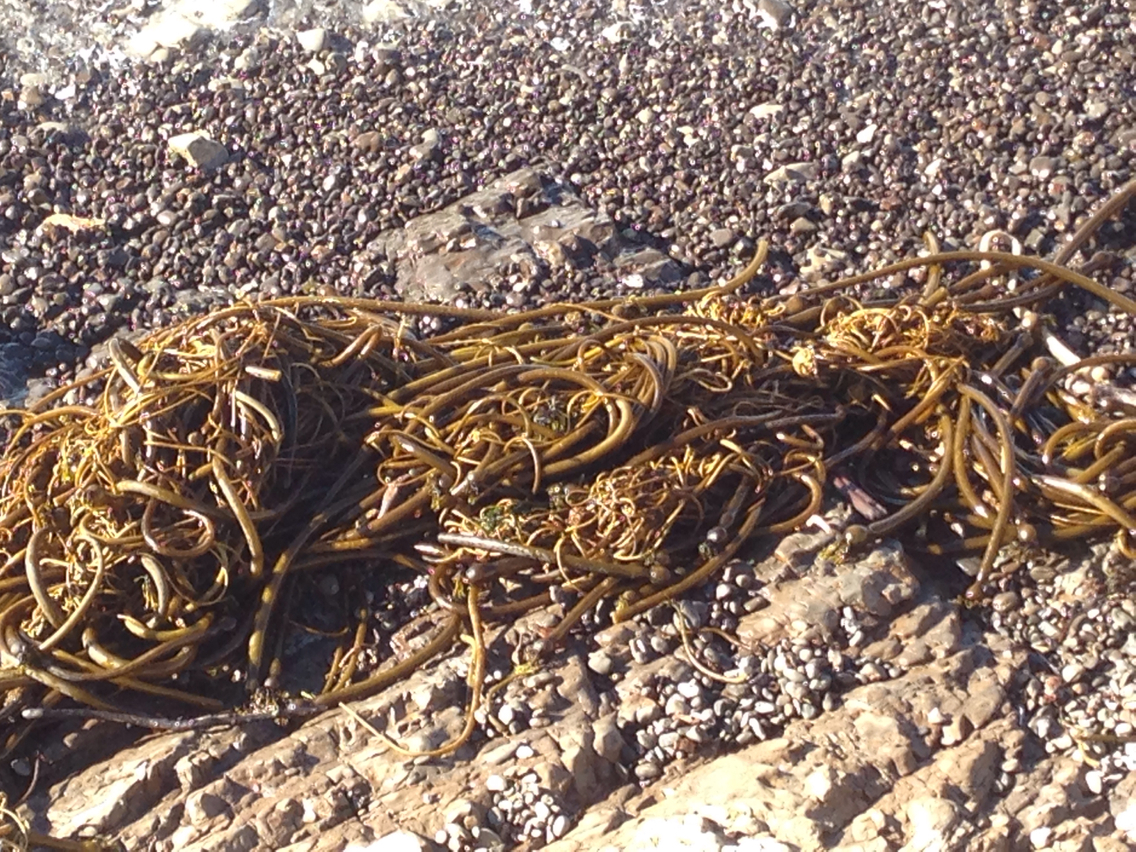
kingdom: Chromista
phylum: Ochrophyta
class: Phaeophyceae
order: Laminariales
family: Laminariaceae
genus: Nereocystis
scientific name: Nereocystis luetkeana
